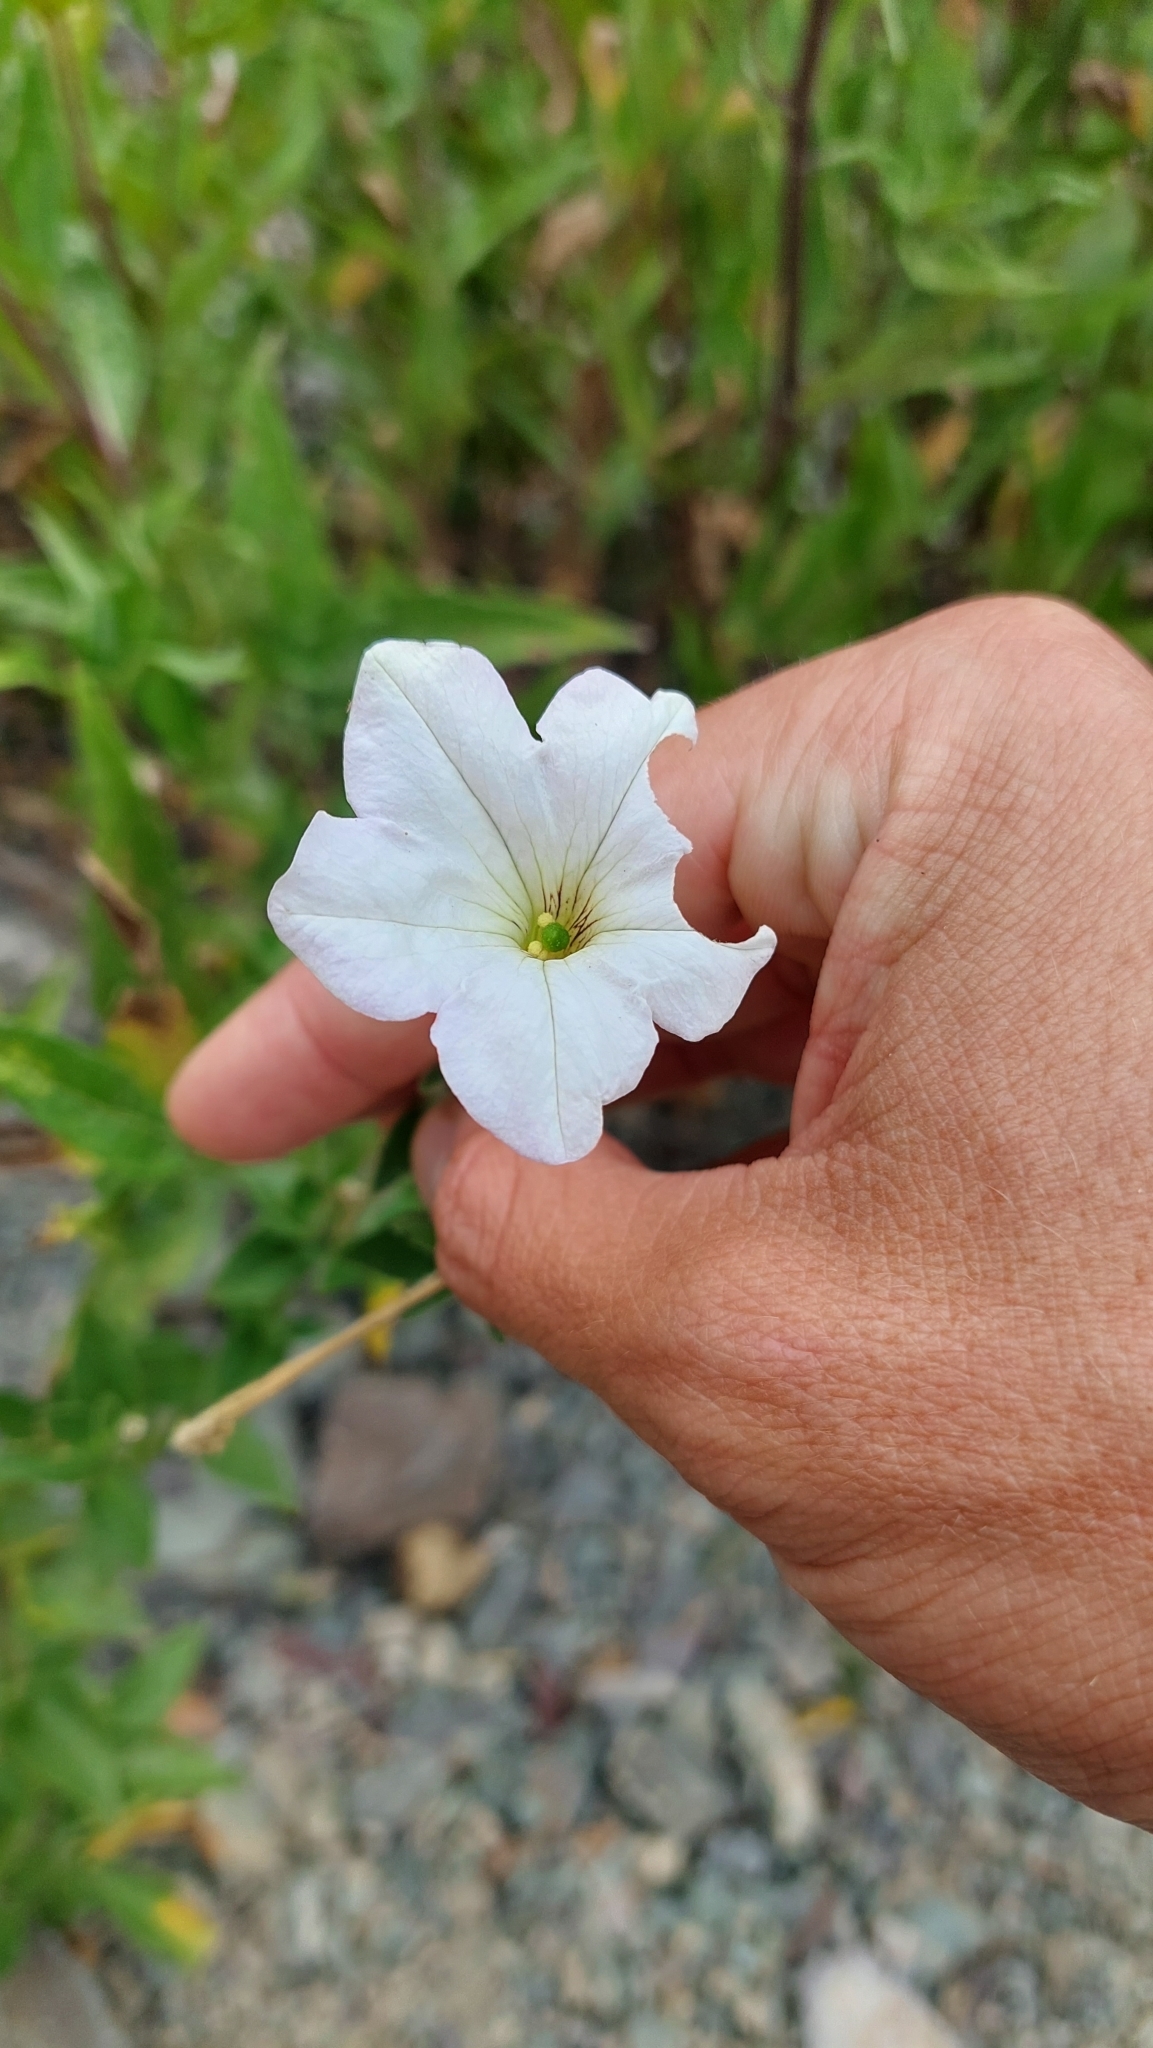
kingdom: Plantae
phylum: Tracheophyta
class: Magnoliopsida
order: Solanales
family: Solanaceae
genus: Petunia
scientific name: Petunia axillaris
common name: Large white petunia
